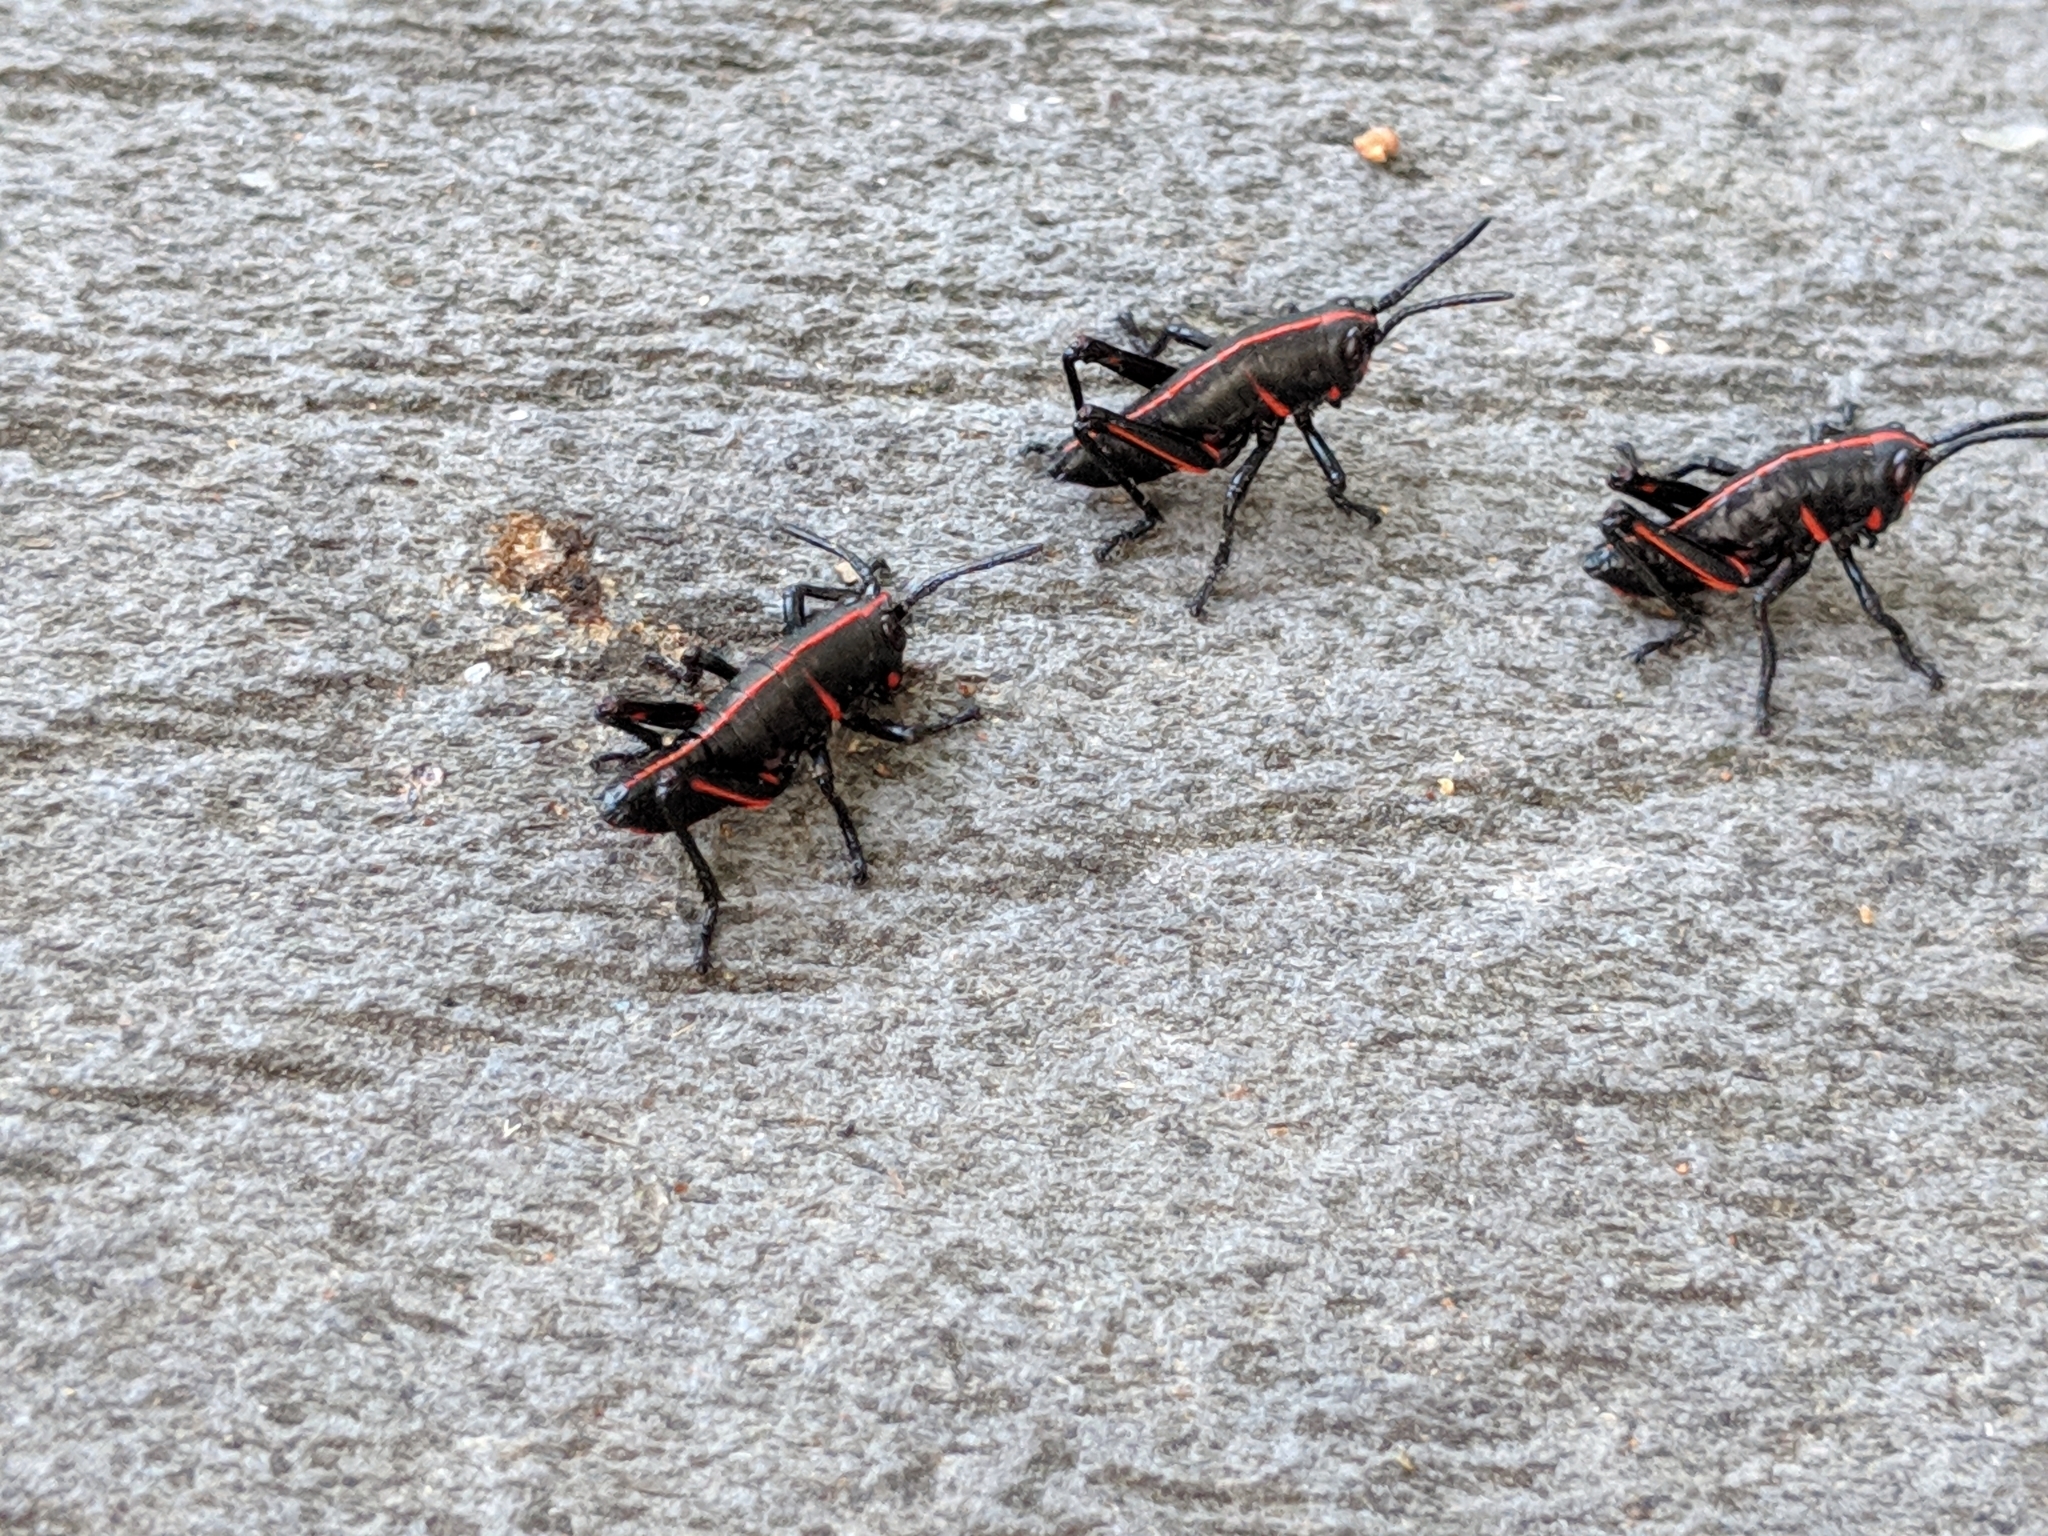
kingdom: Animalia
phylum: Arthropoda
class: Insecta
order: Orthoptera
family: Romaleidae
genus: Romalea
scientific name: Romalea microptera
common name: Eastern lubber grasshopper
